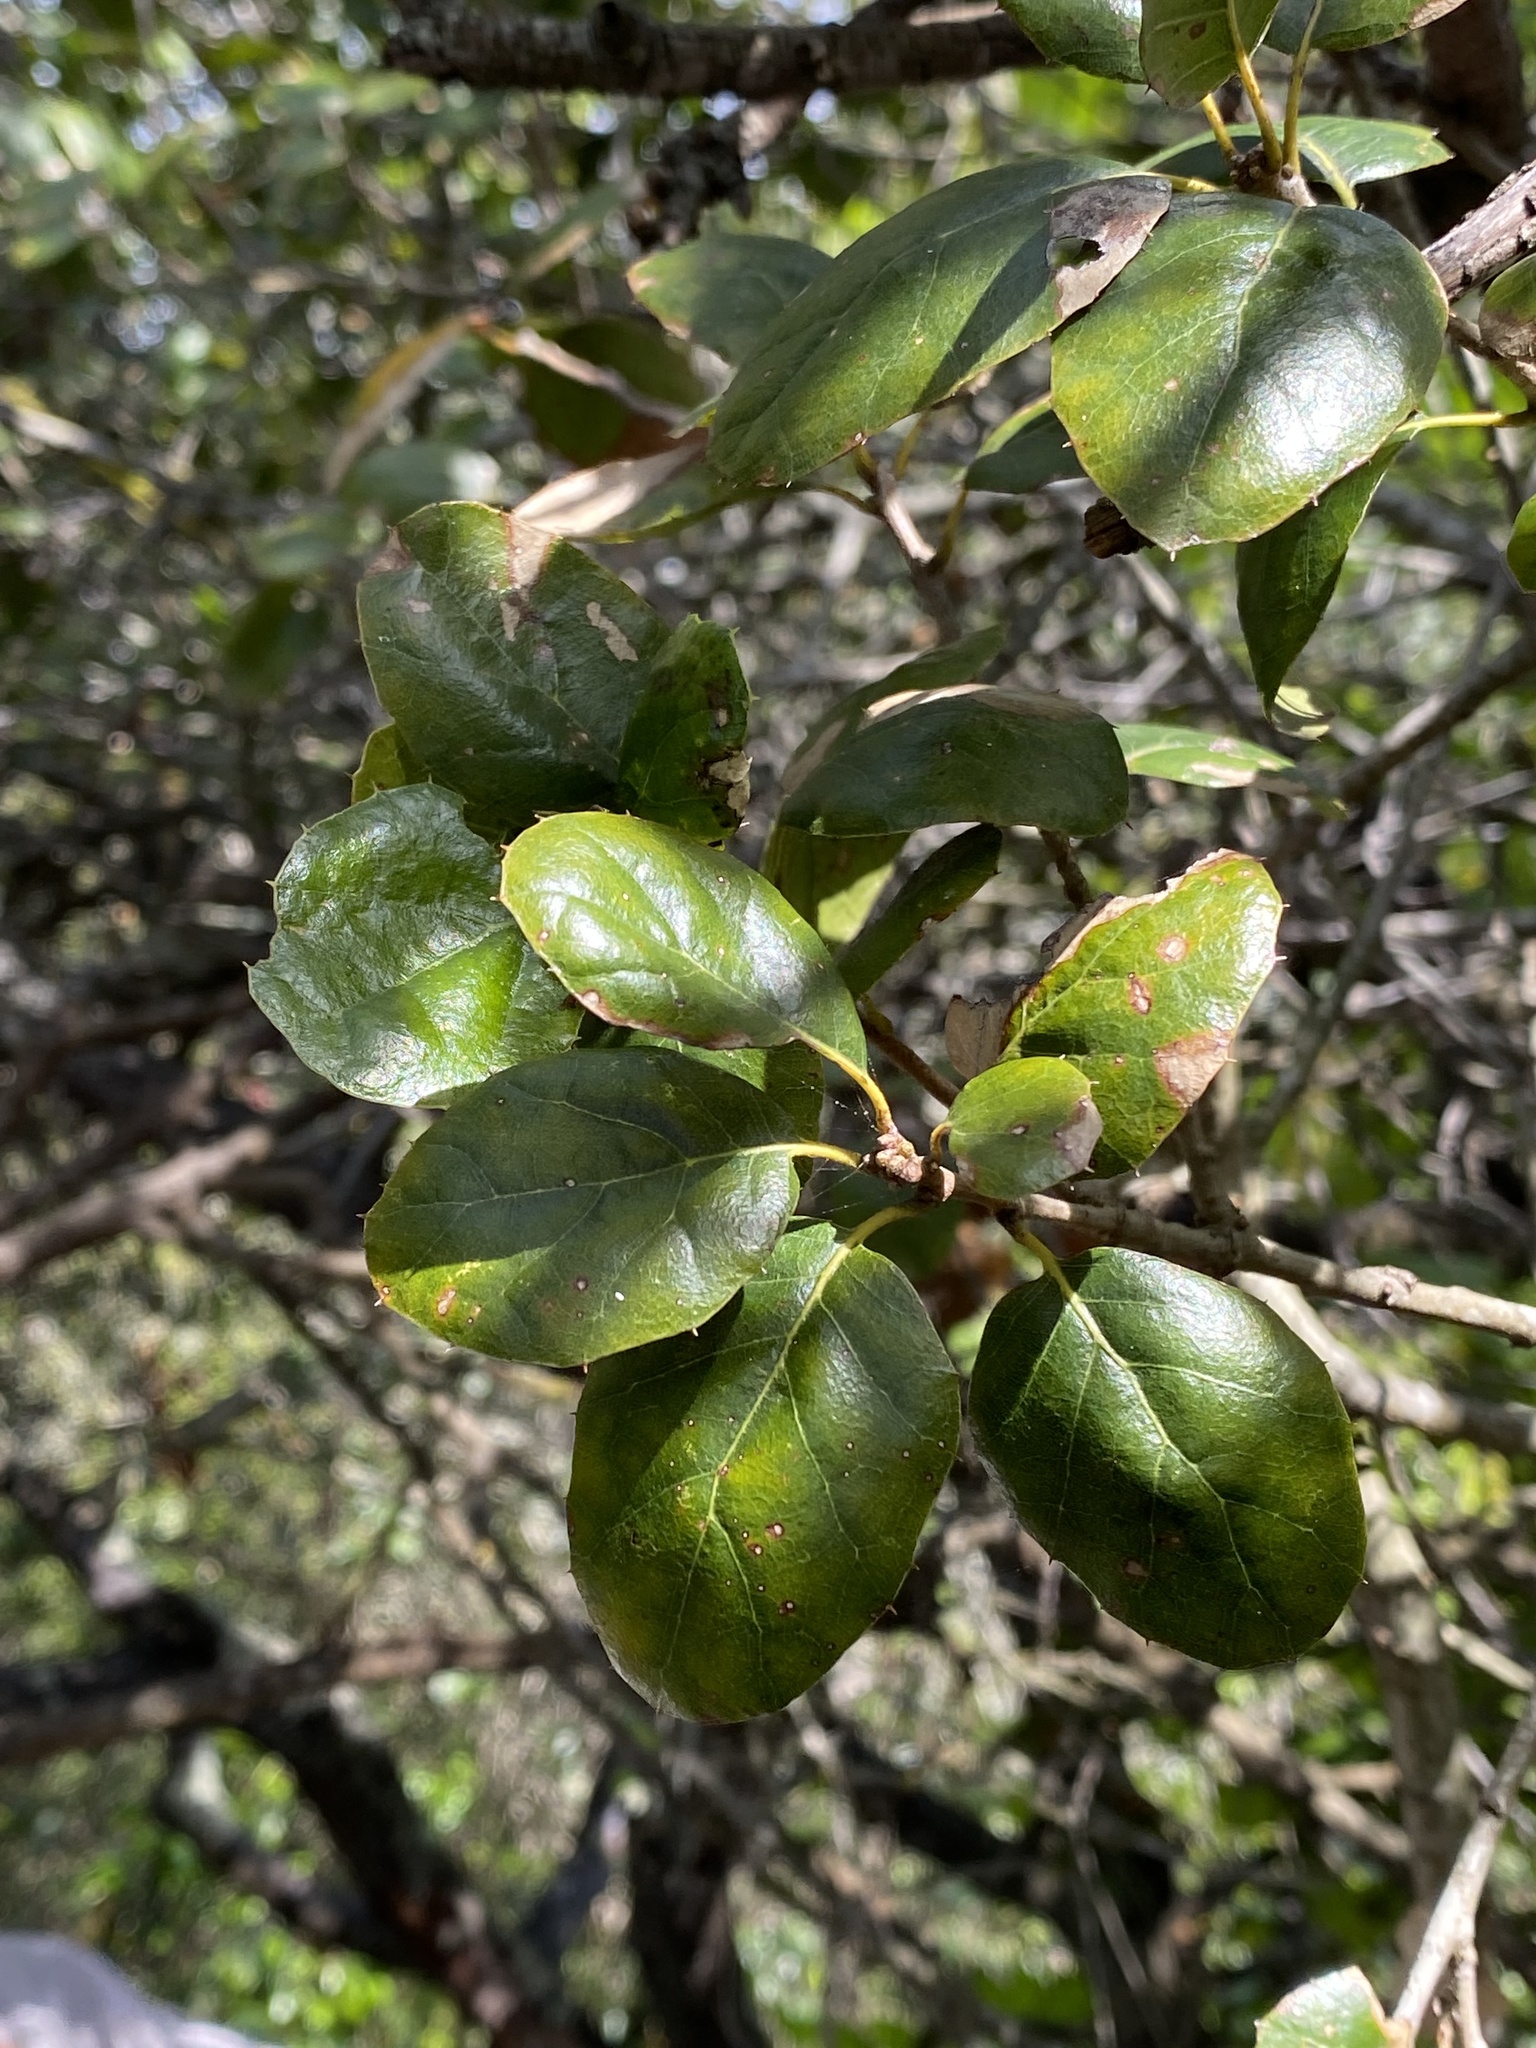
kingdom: Plantae
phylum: Tracheophyta
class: Magnoliopsida
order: Fagales
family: Fagaceae
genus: Quercus
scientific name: Quercus agrifolia
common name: California live oak
